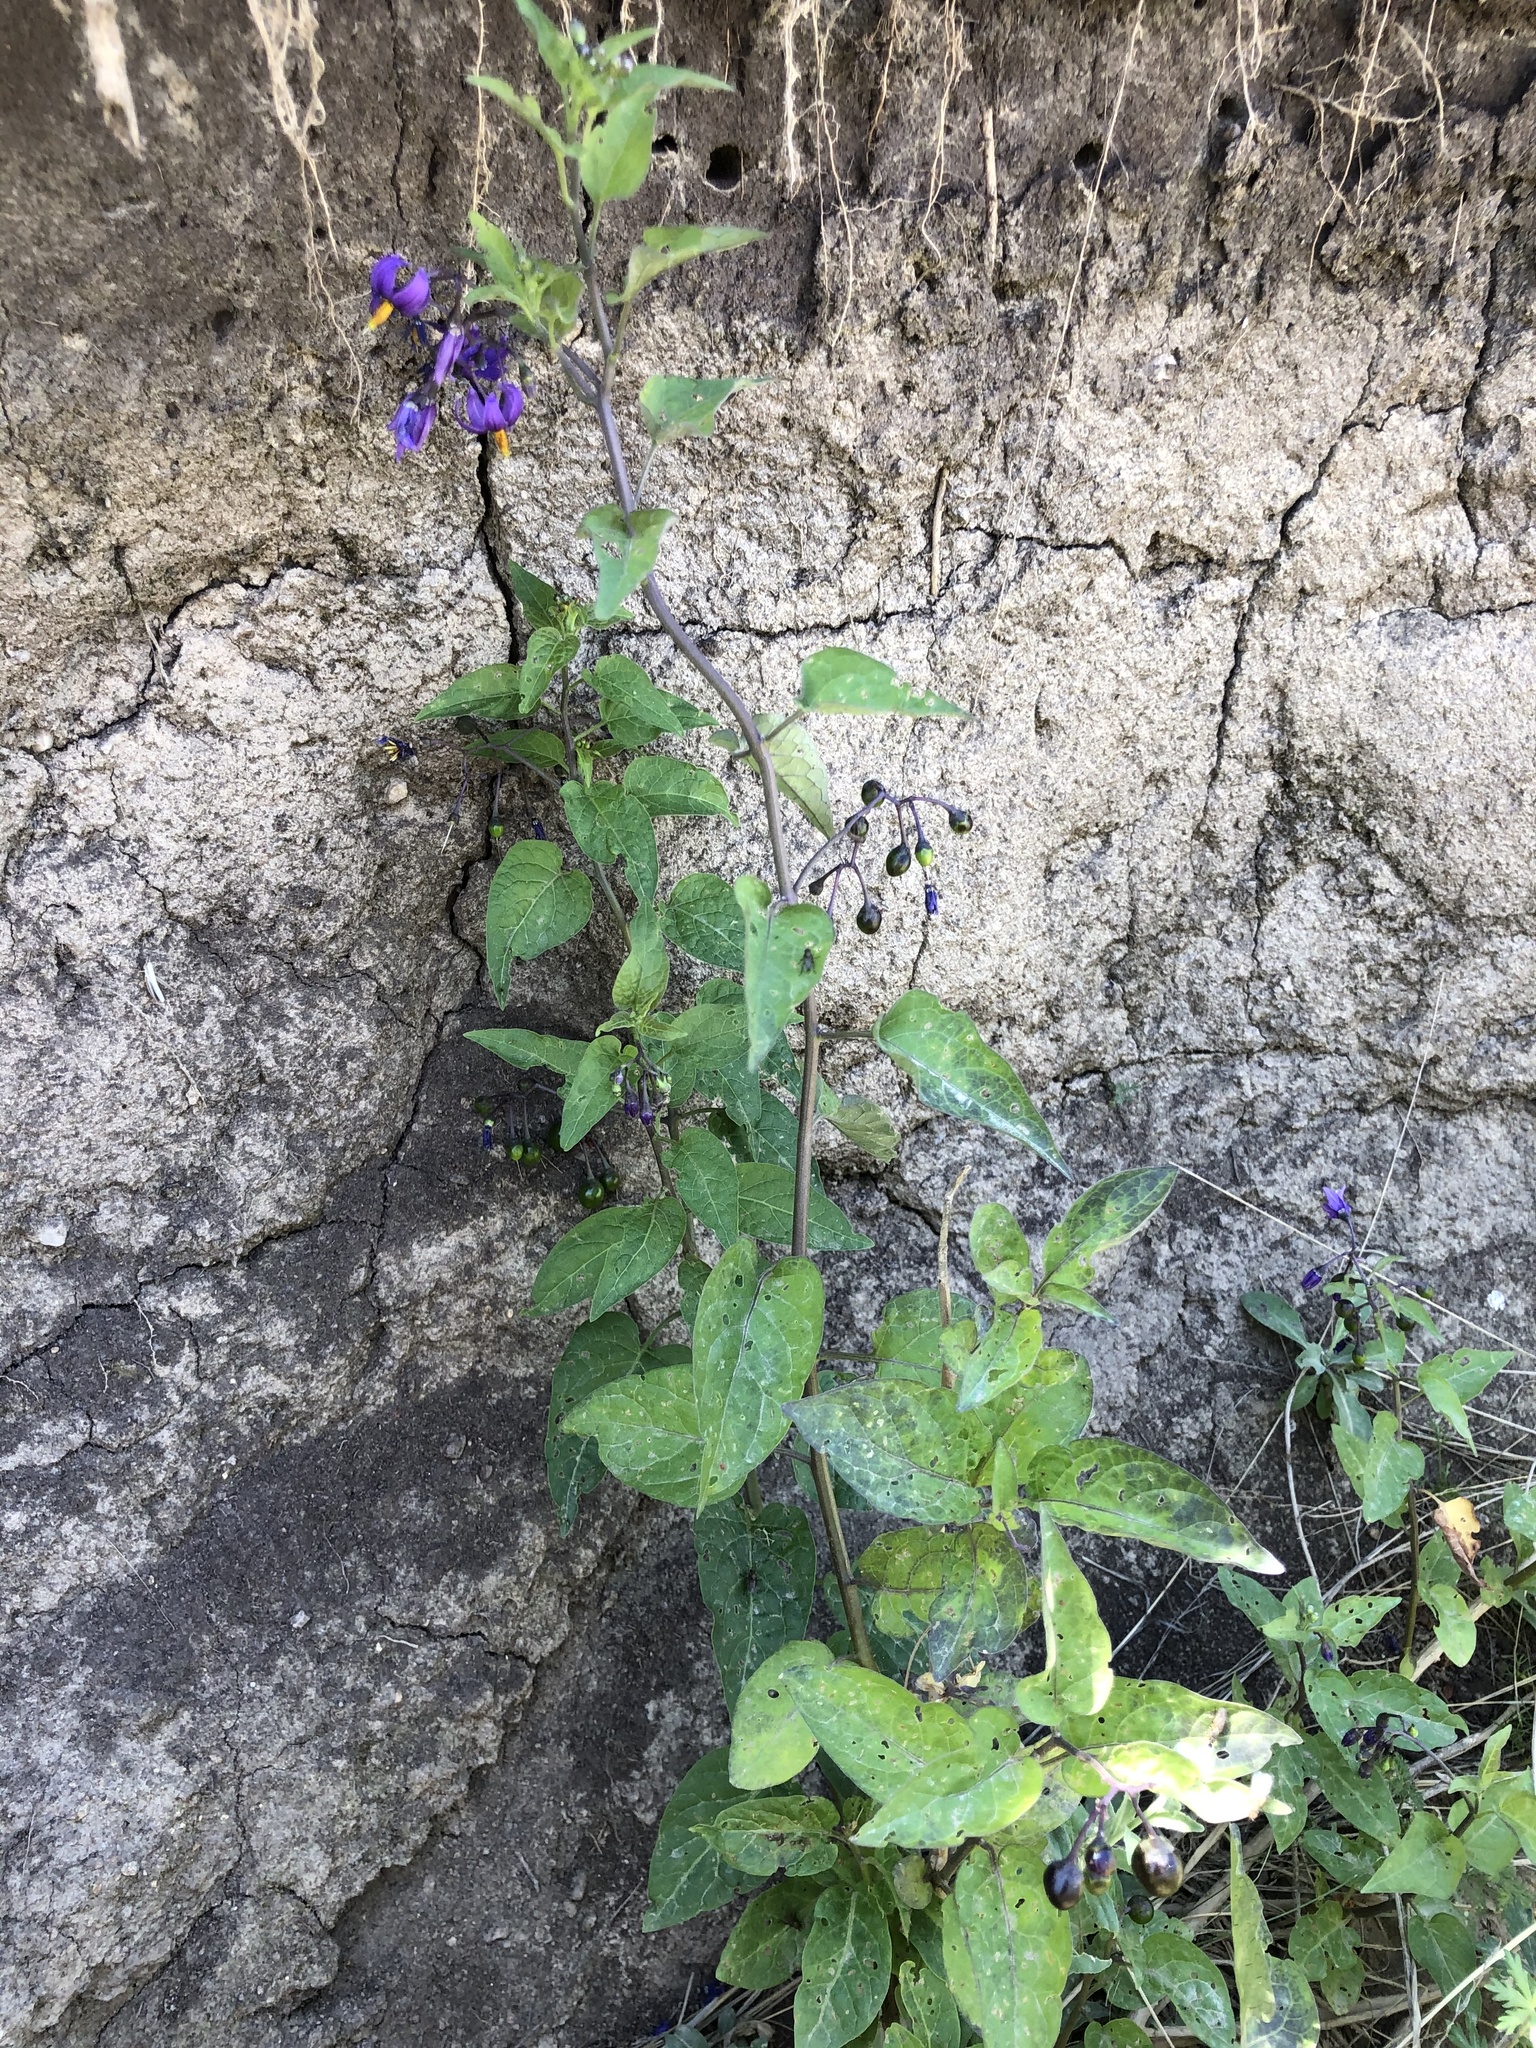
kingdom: Plantae
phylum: Tracheophyta
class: Magnoliopsida
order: Solanales
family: Solanaceae
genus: Solanum
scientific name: Solanum dulcamara
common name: Climbing nightshade
